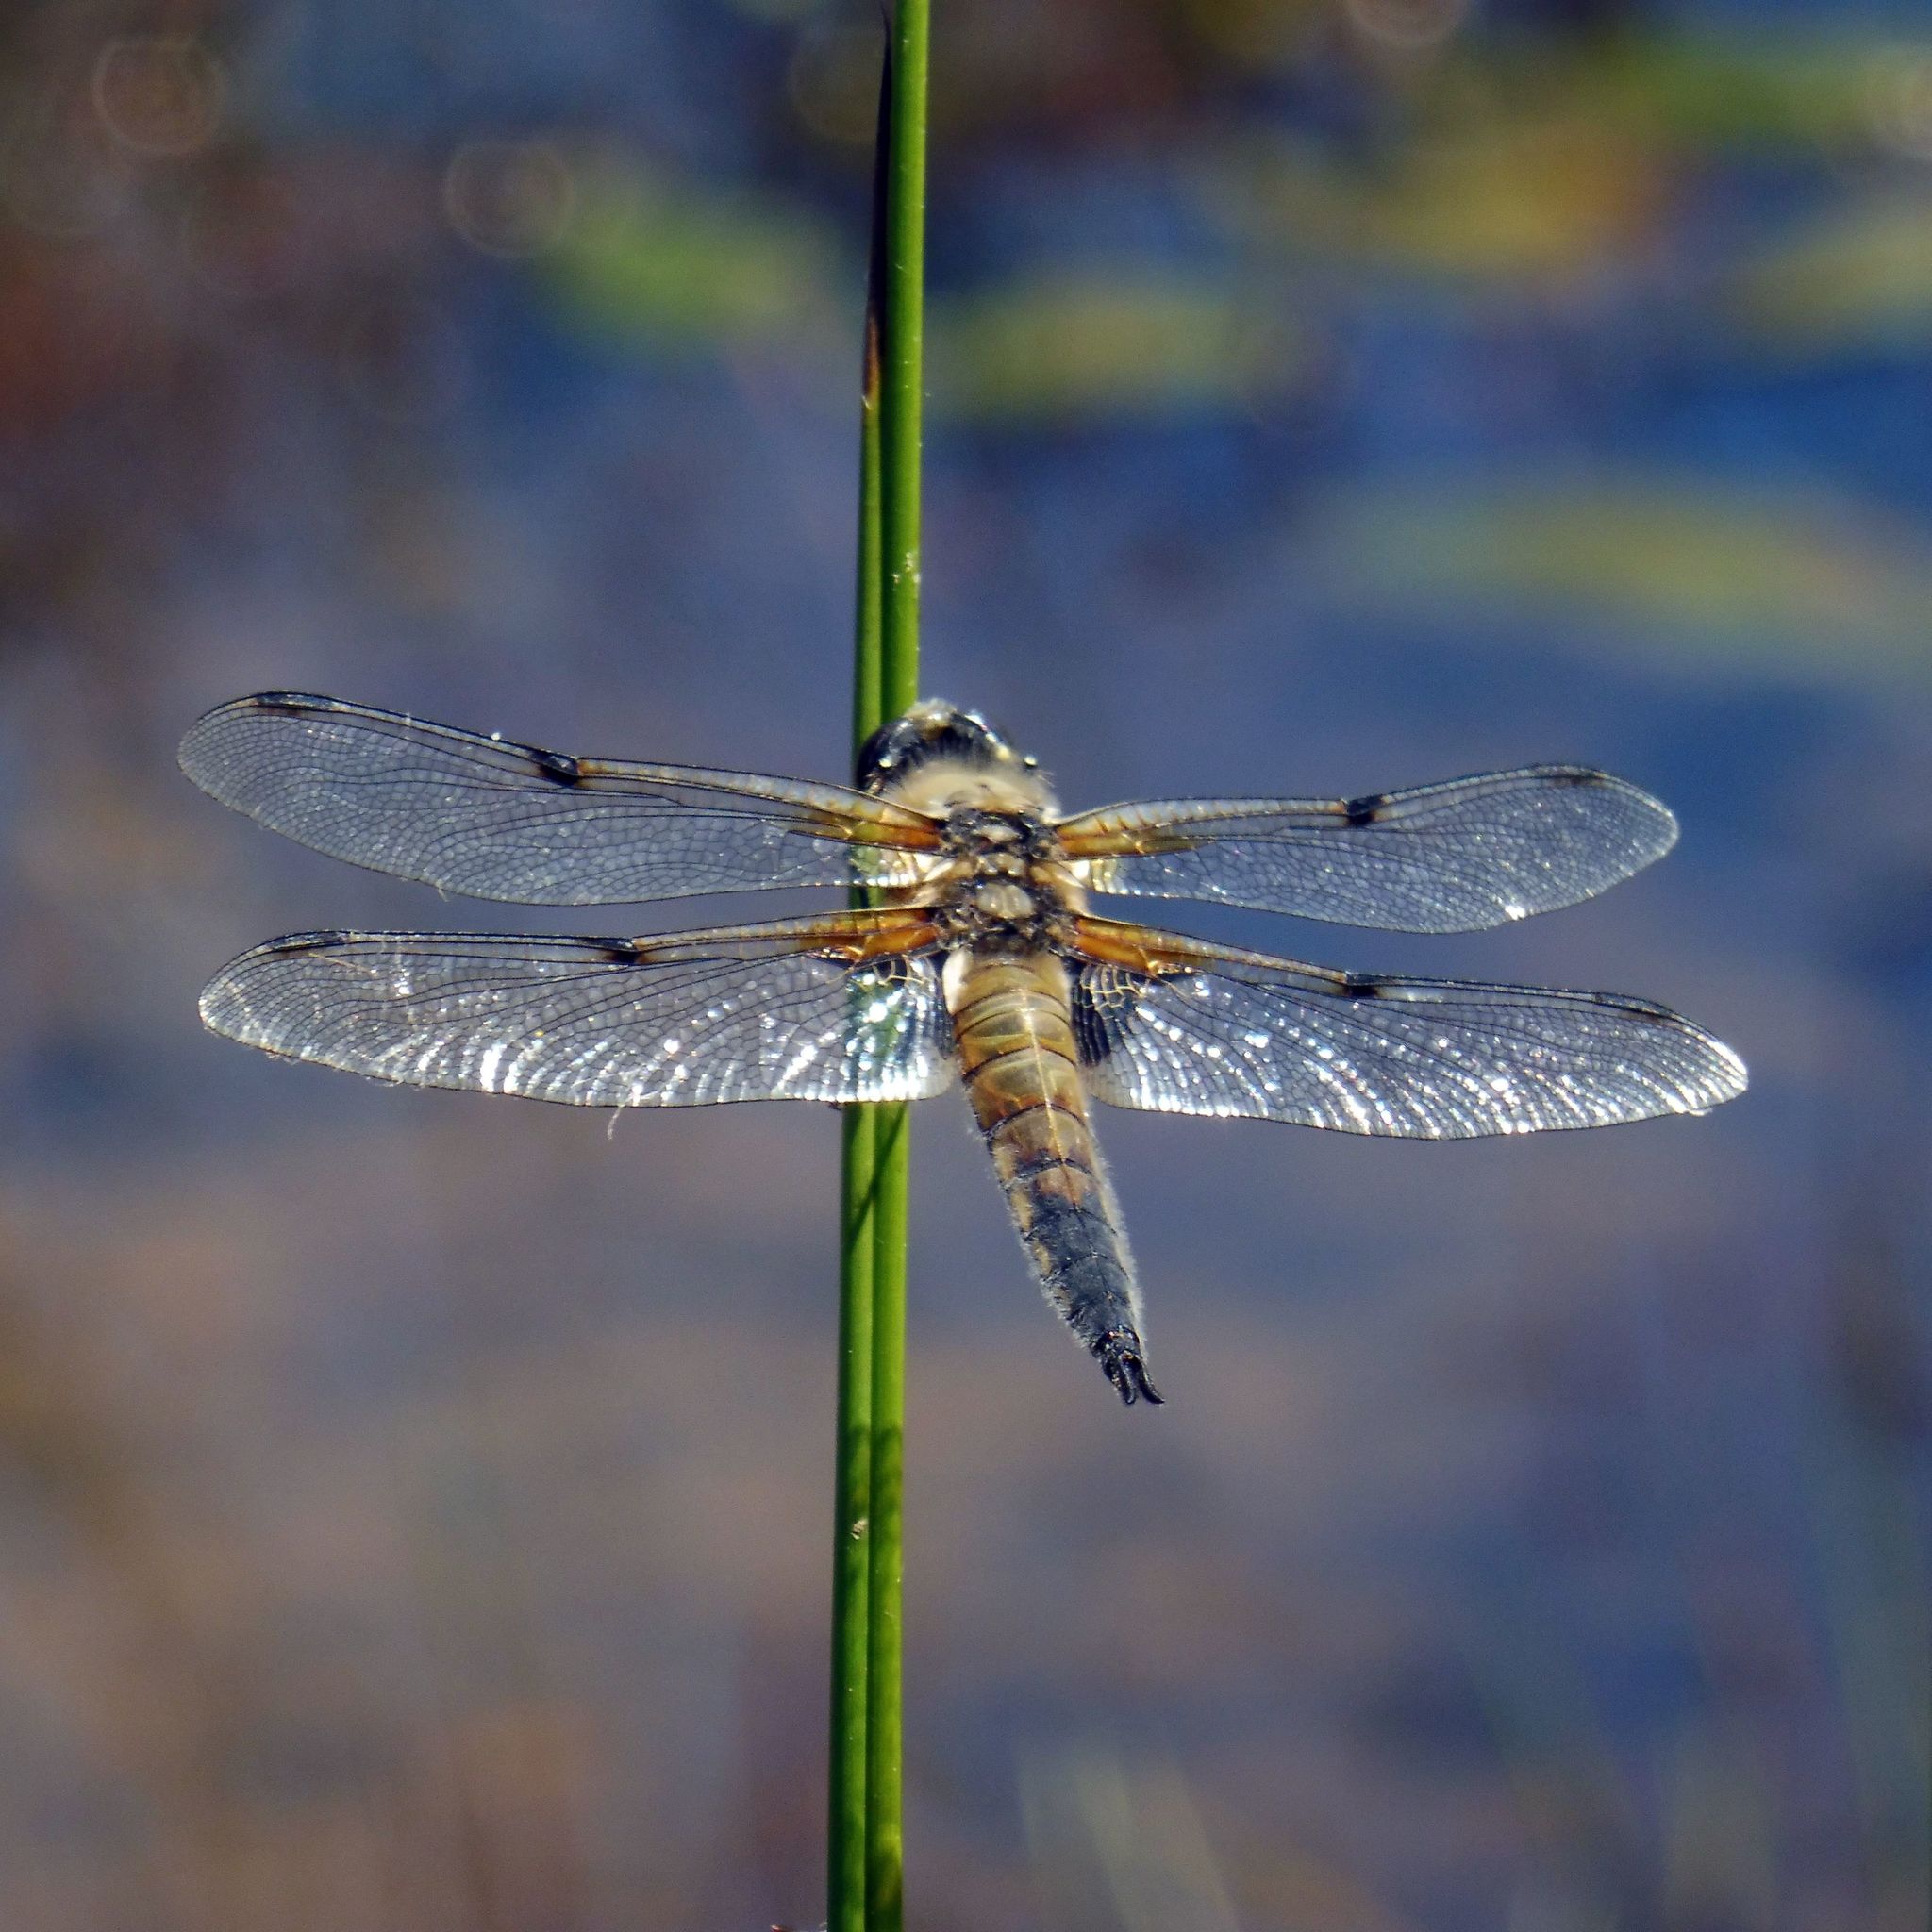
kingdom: Animalia
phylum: Arthropoda
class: Insecta
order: Odonata
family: Libellulidae
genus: Libellula
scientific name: Libellula quadrimaculata
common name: Four-spotted chaser
